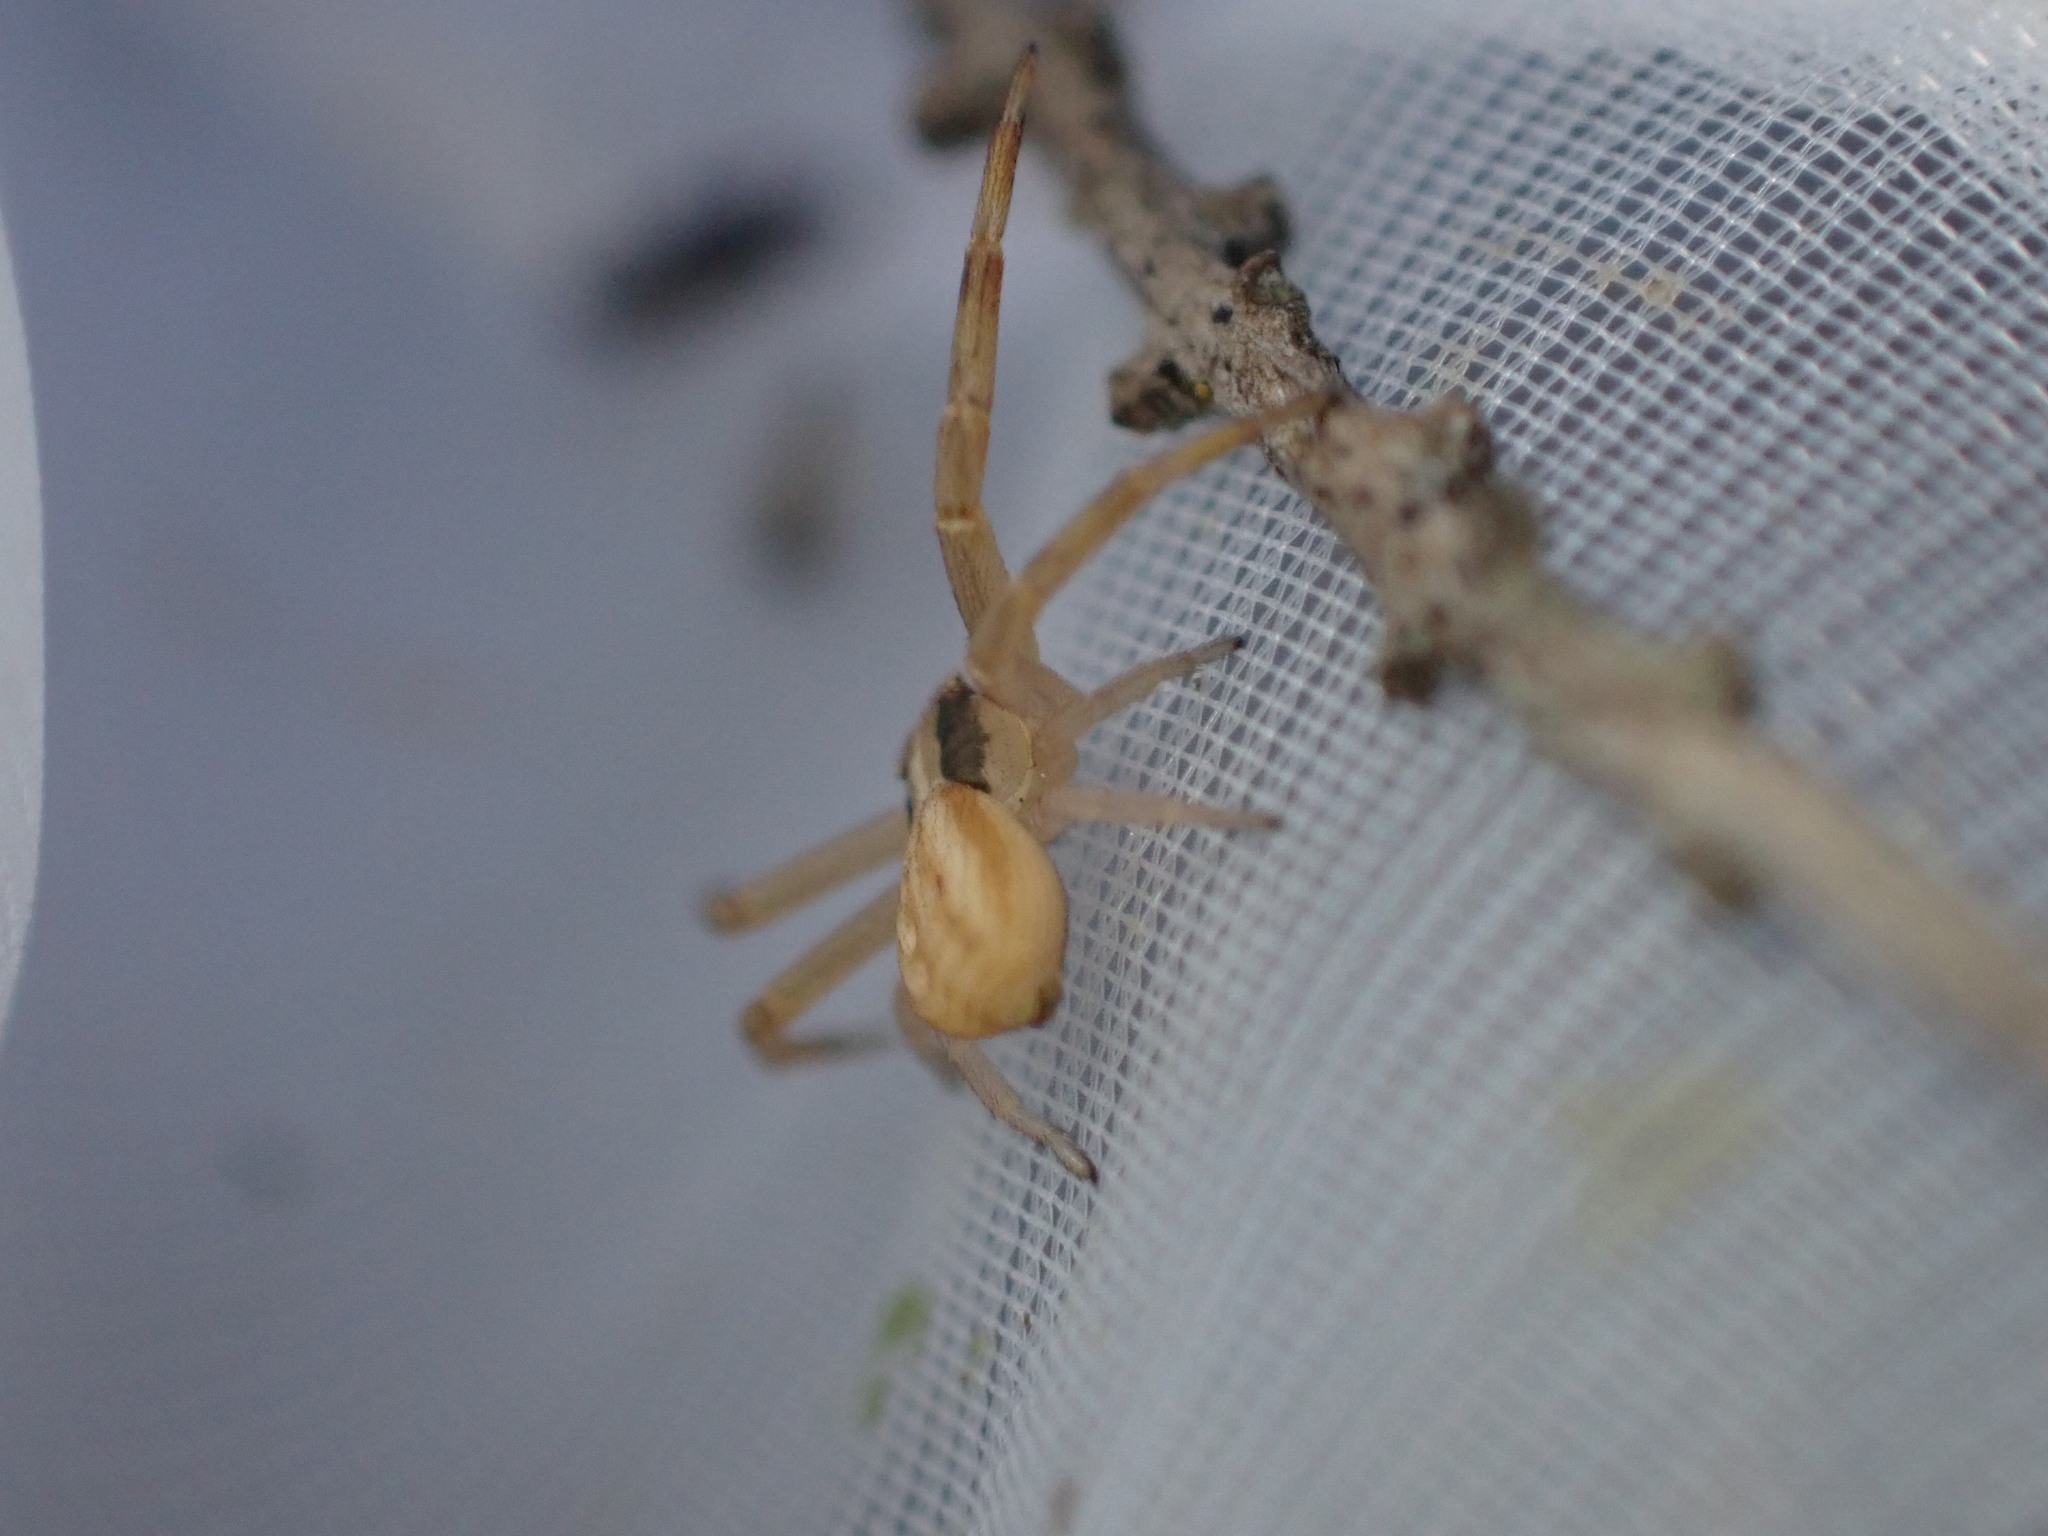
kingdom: Animalia
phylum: Arthropoda
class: Arachnida
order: Araneae
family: Thomisidae
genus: Runcinia
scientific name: Runcinia grammica
